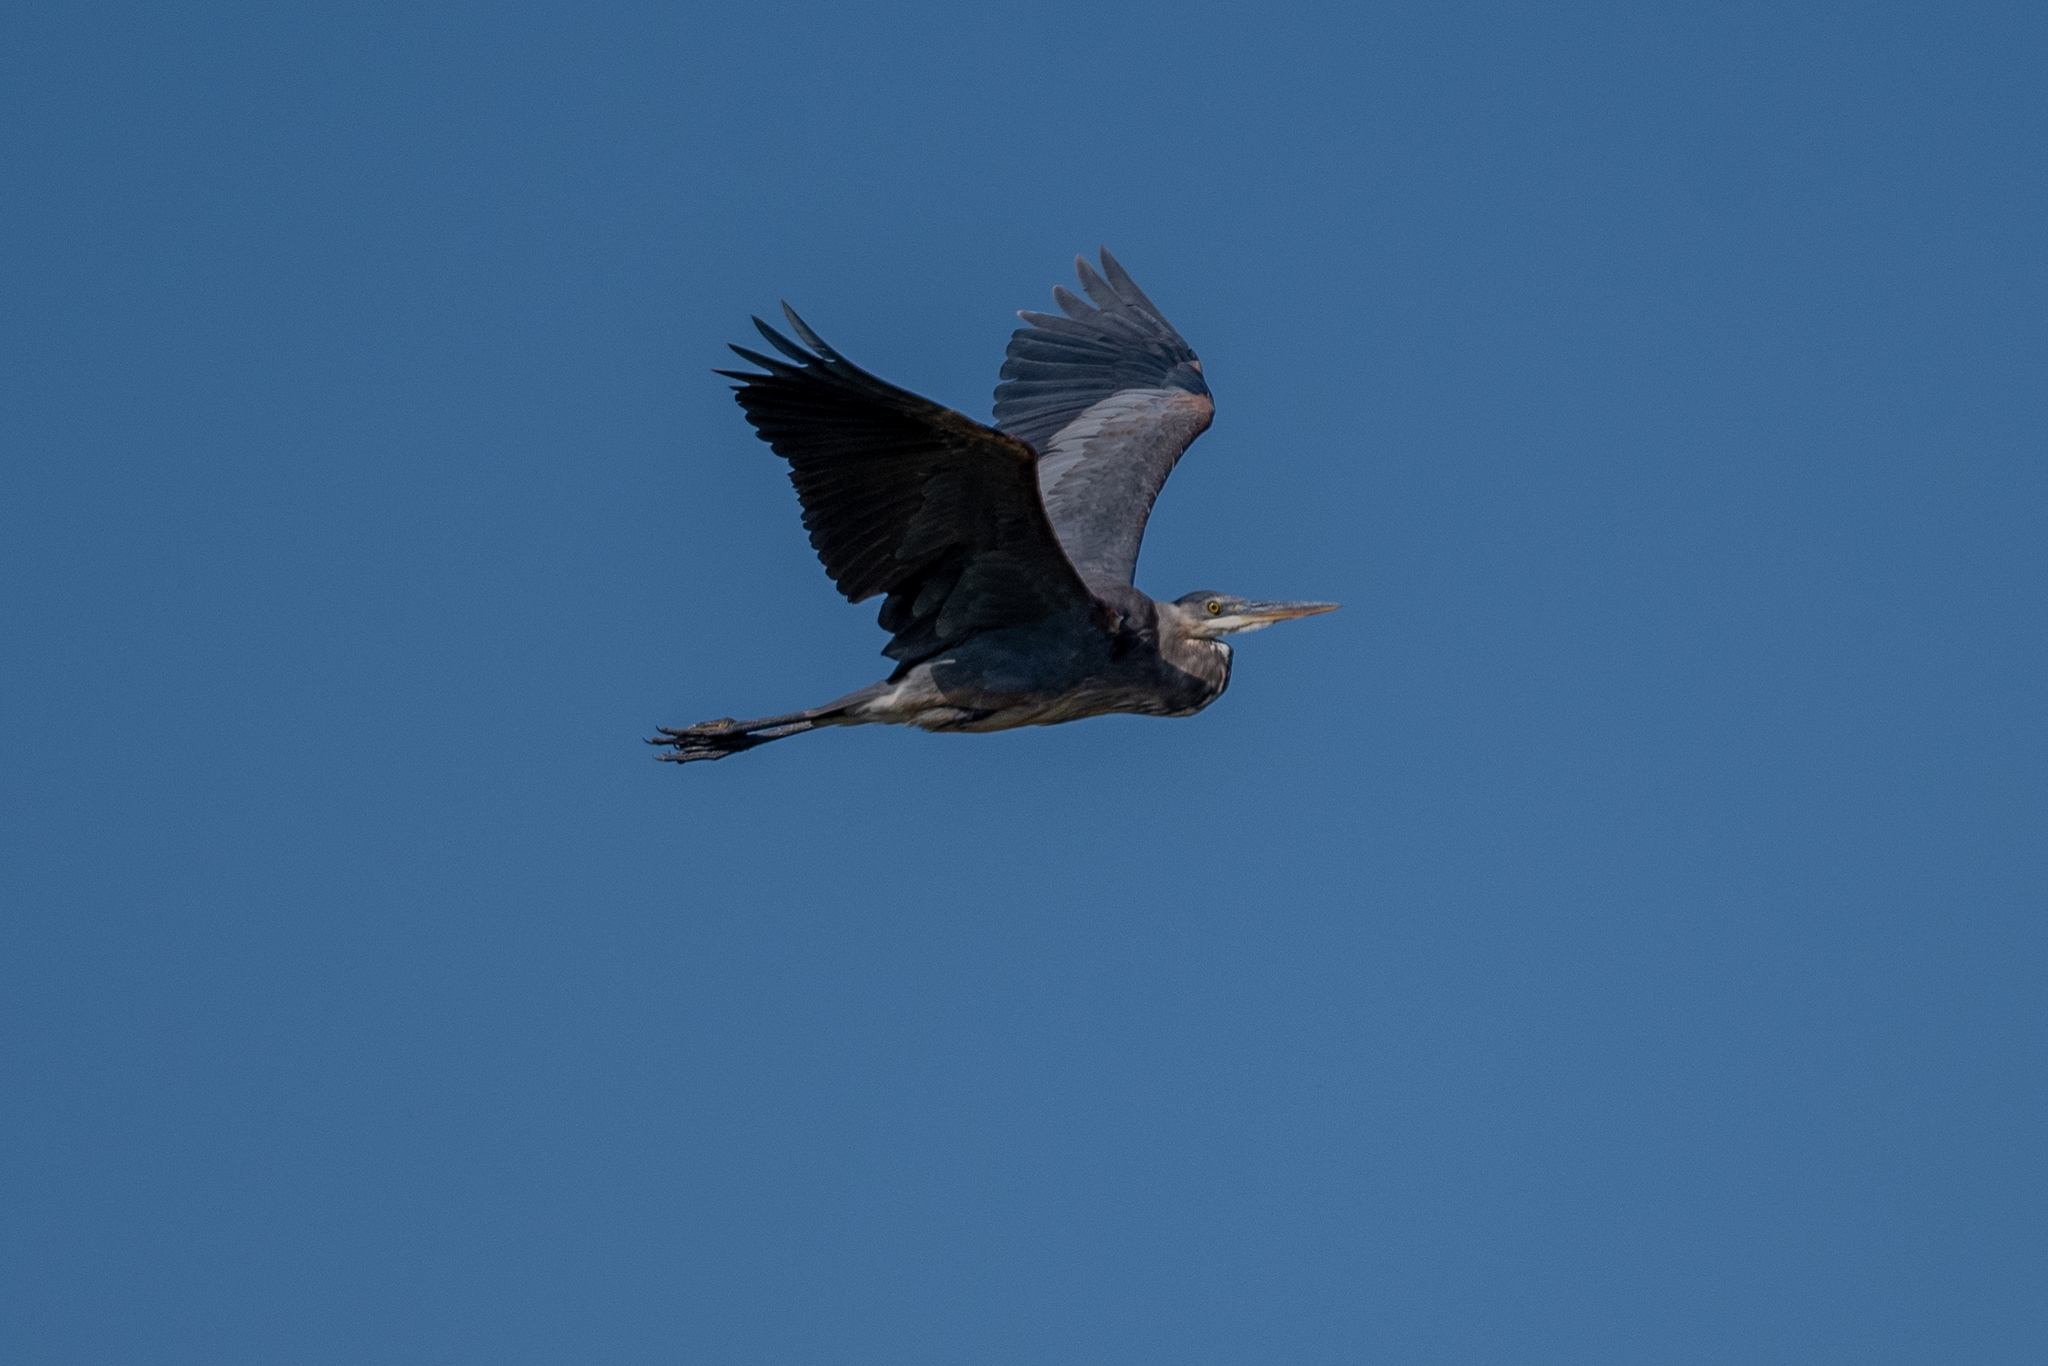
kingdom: Animalia
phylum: Chordata
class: Aves
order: Pelecaniformes
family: Ardeidae
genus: Ardea
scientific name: Ardea herodias
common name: Great blue heron
